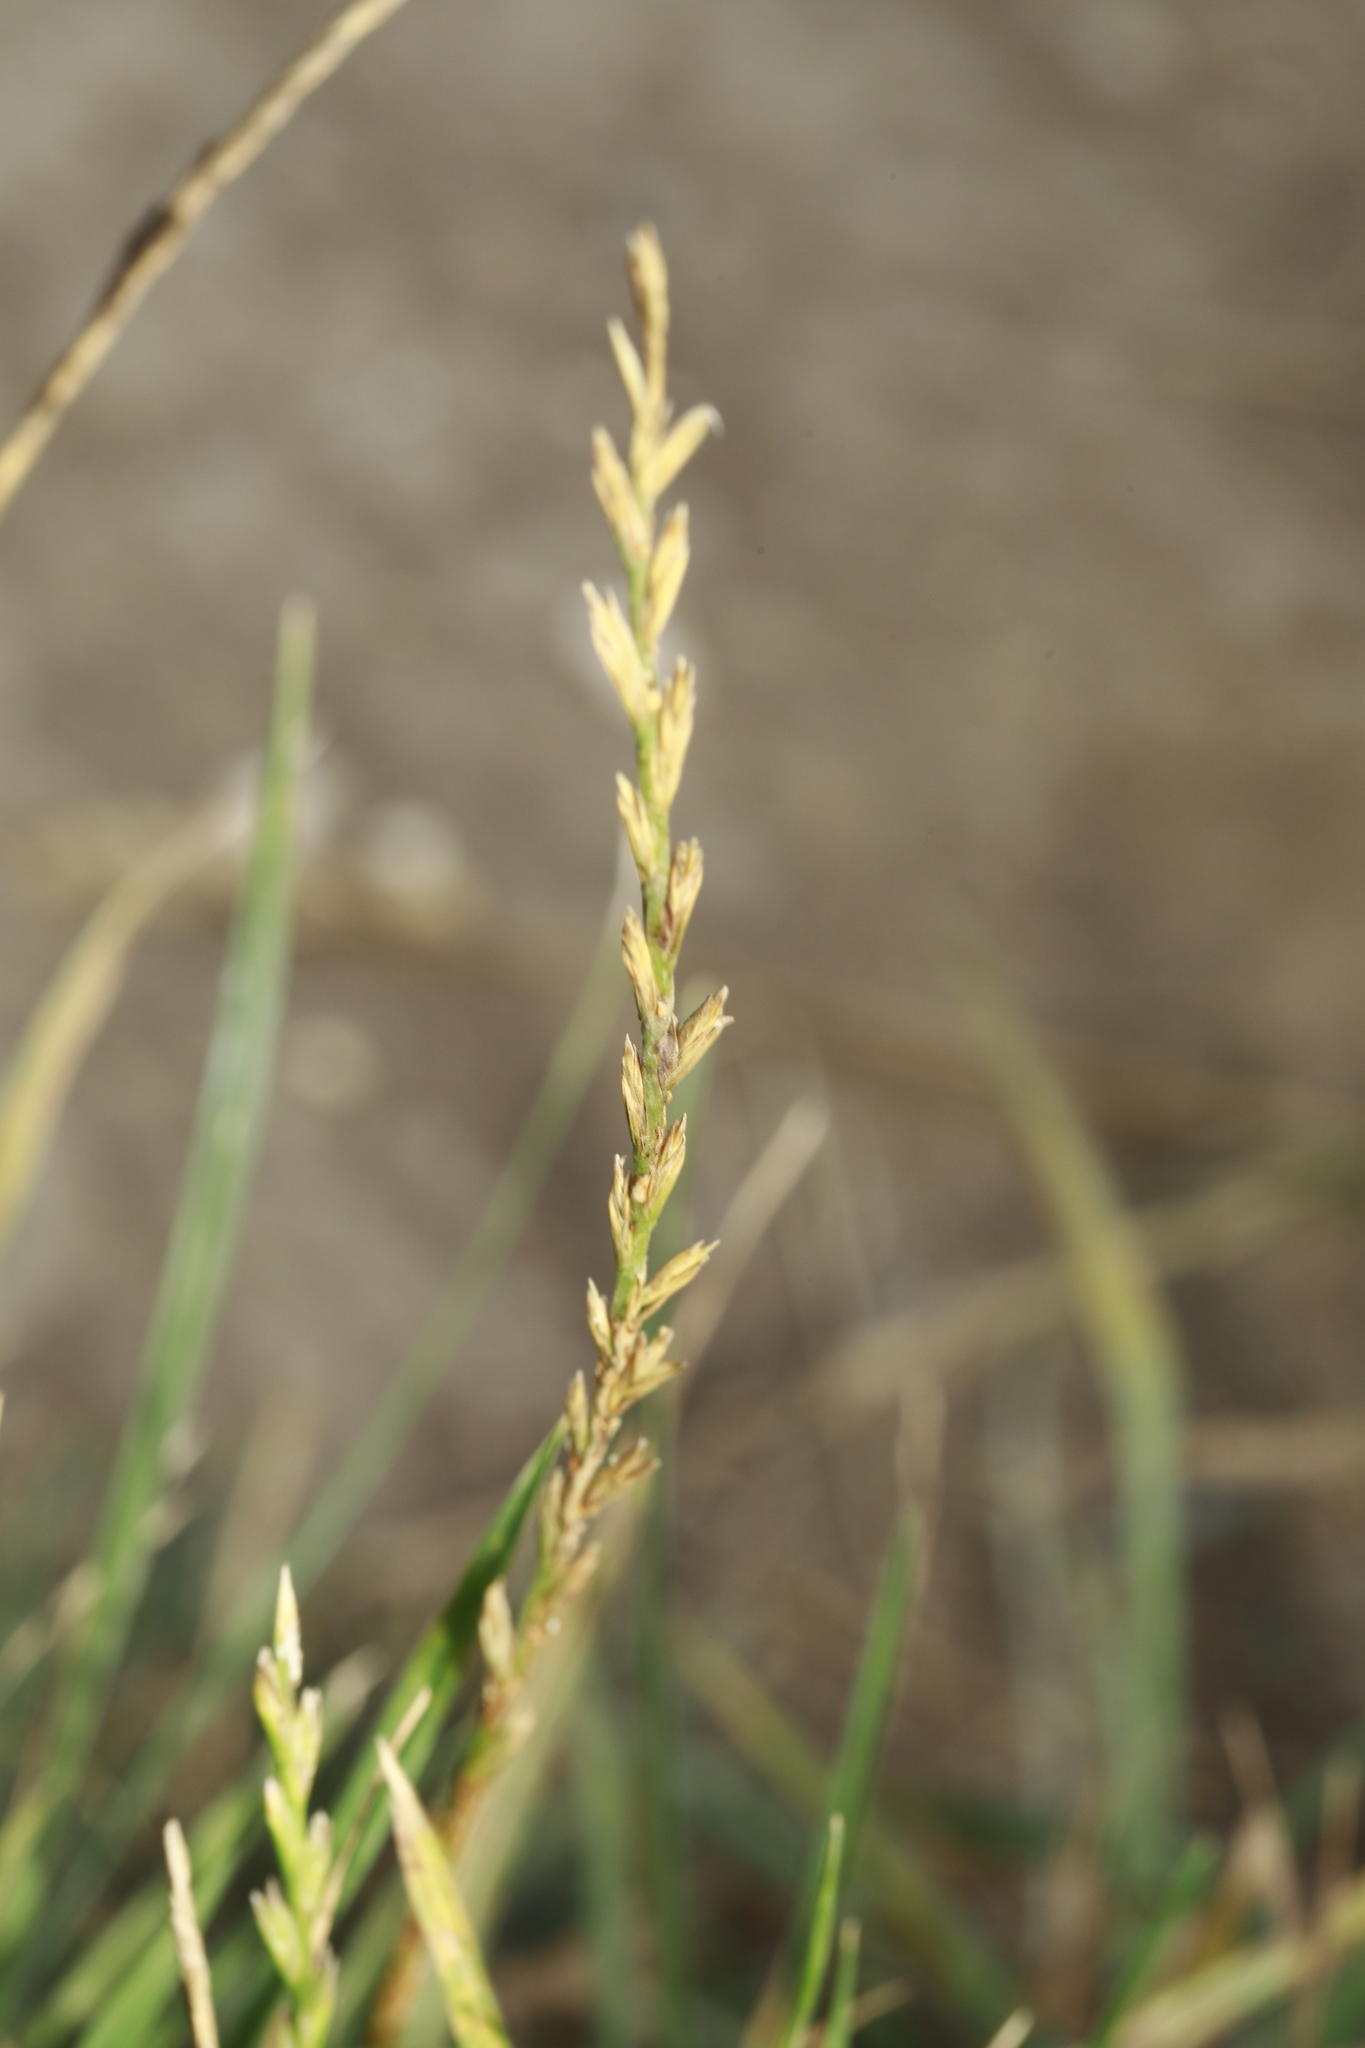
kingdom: Plantae
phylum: Tracheophyta
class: Liliopsida
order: Poales
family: Poaceae
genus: Lolium
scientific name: Lolium perenne
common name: Perennial ryegrass
